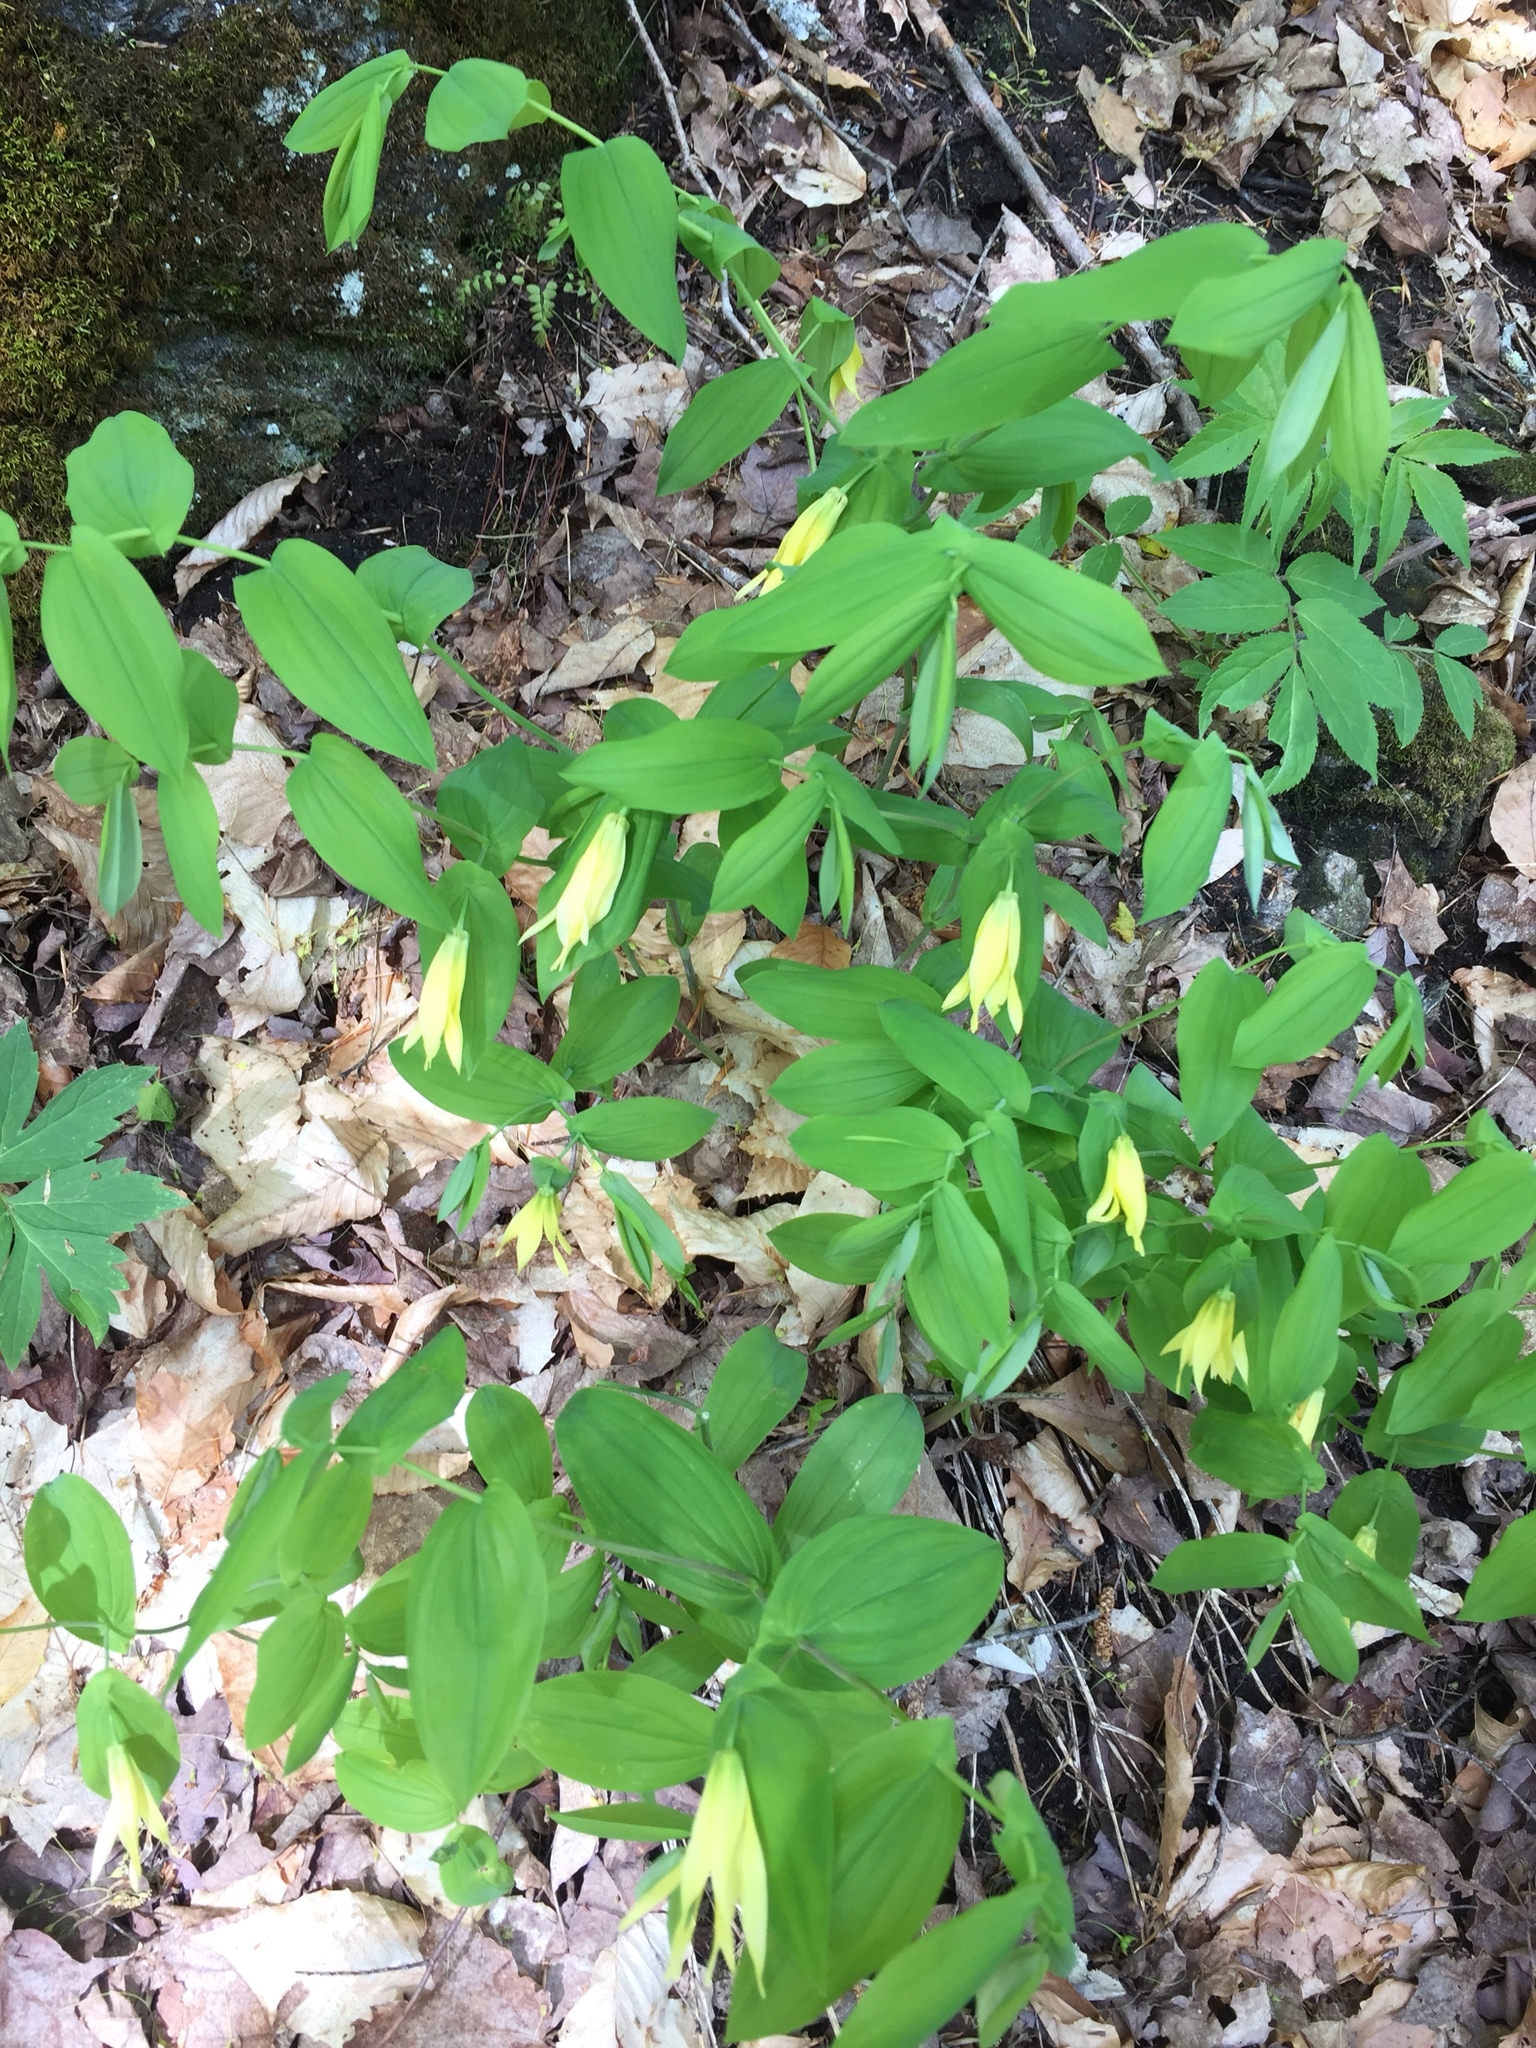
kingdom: Plantae
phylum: Tracheophyta
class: Liliopsida
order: Liliales
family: Colchicaceae
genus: Uvularia
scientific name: Uvularia grandiflora
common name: Bellwort
